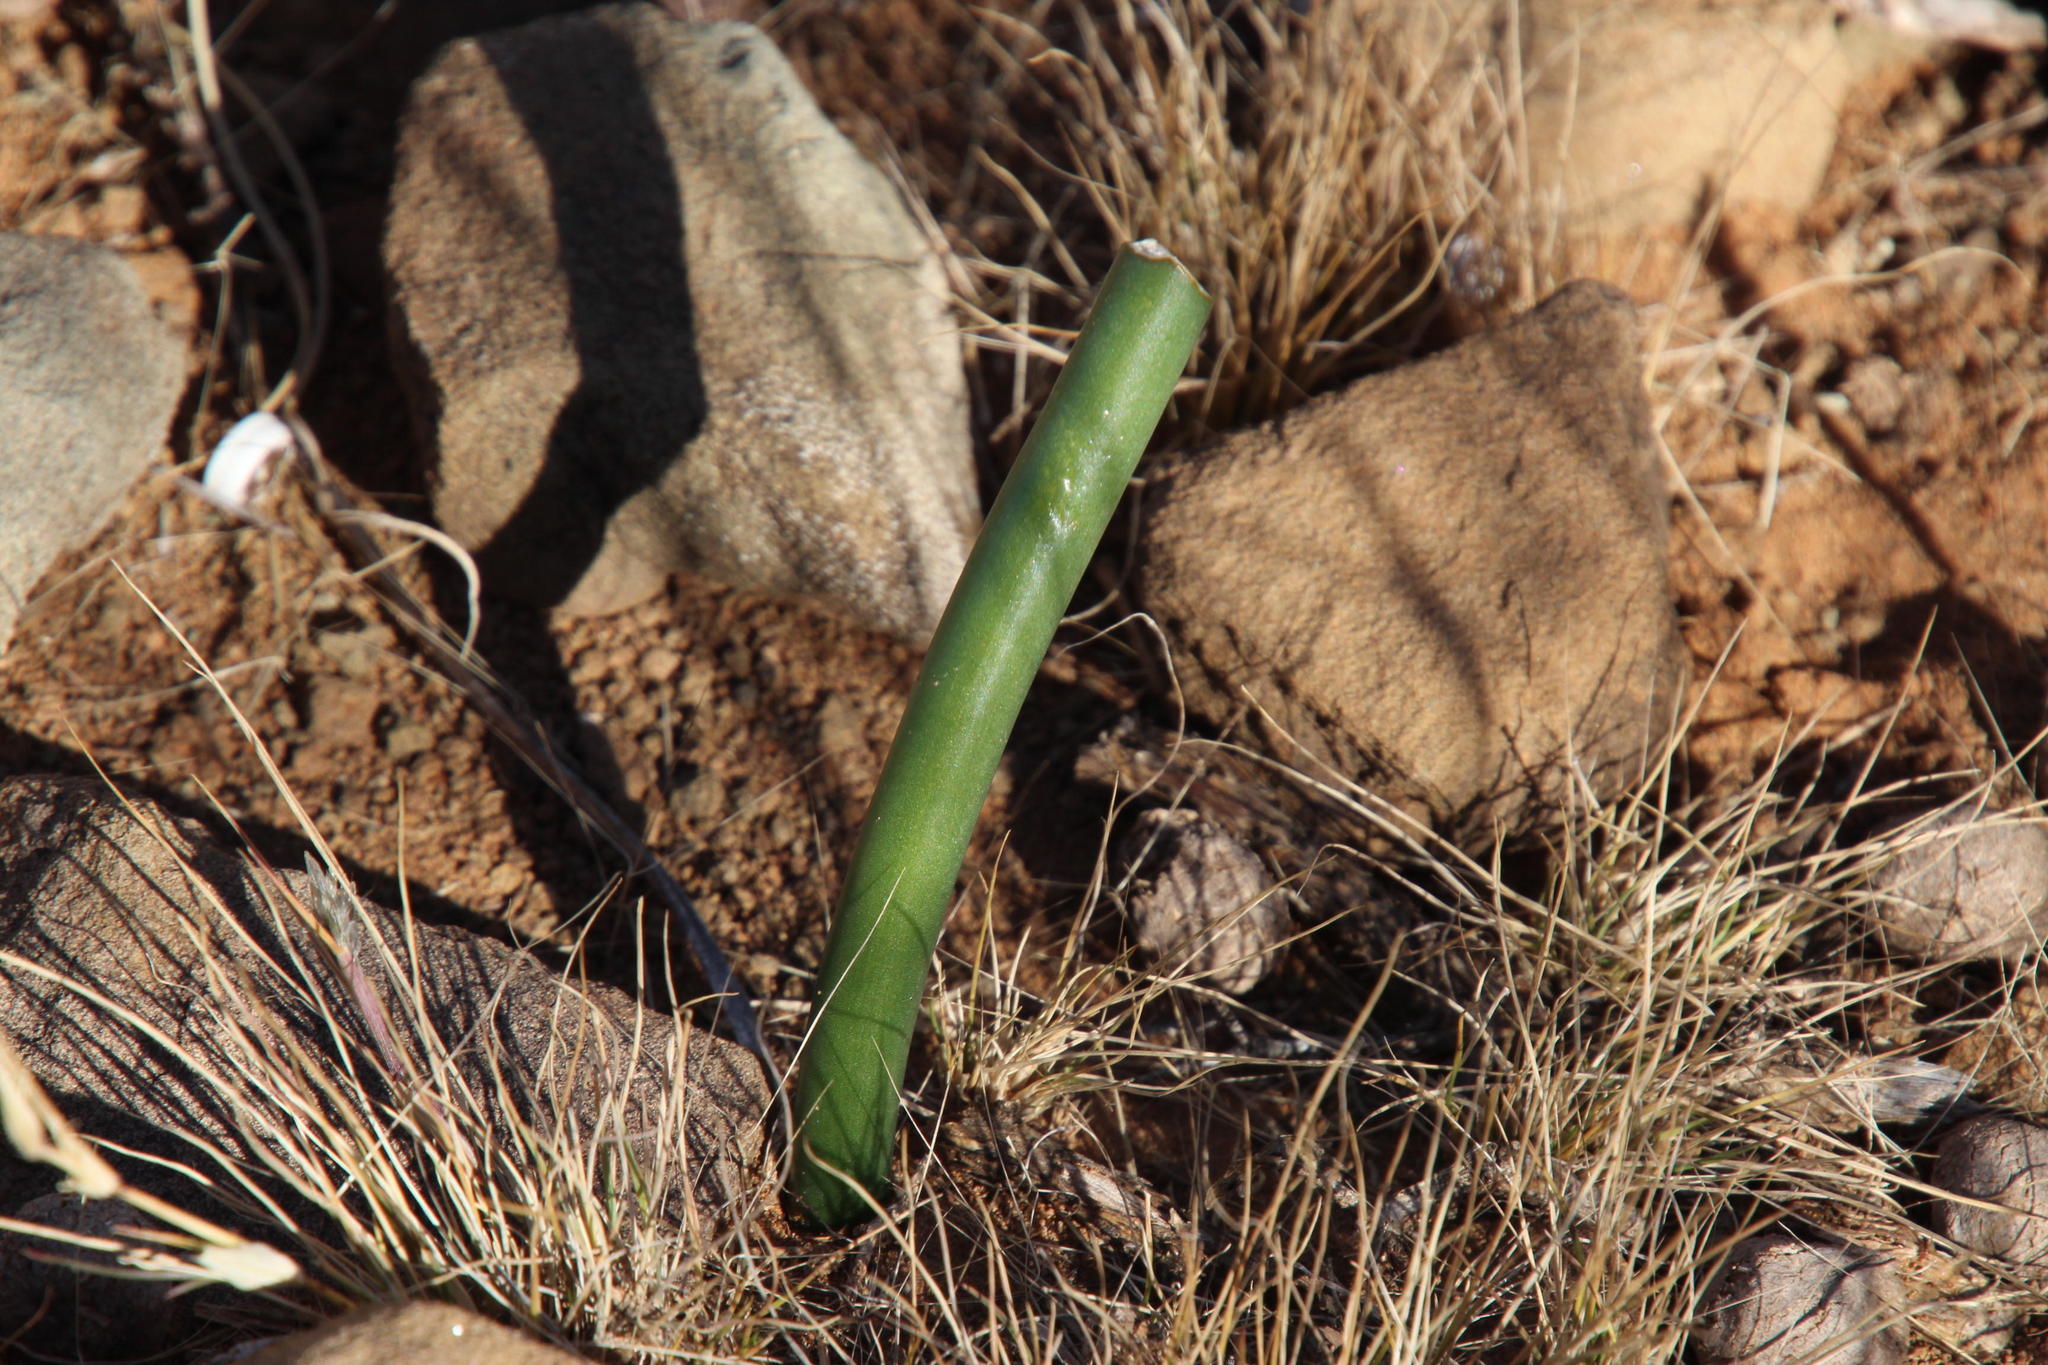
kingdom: Plantae
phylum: Tracheophyta
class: Liliopsida
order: Asparagales
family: Asparagaceae
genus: Drimia
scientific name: Drimia anomala
